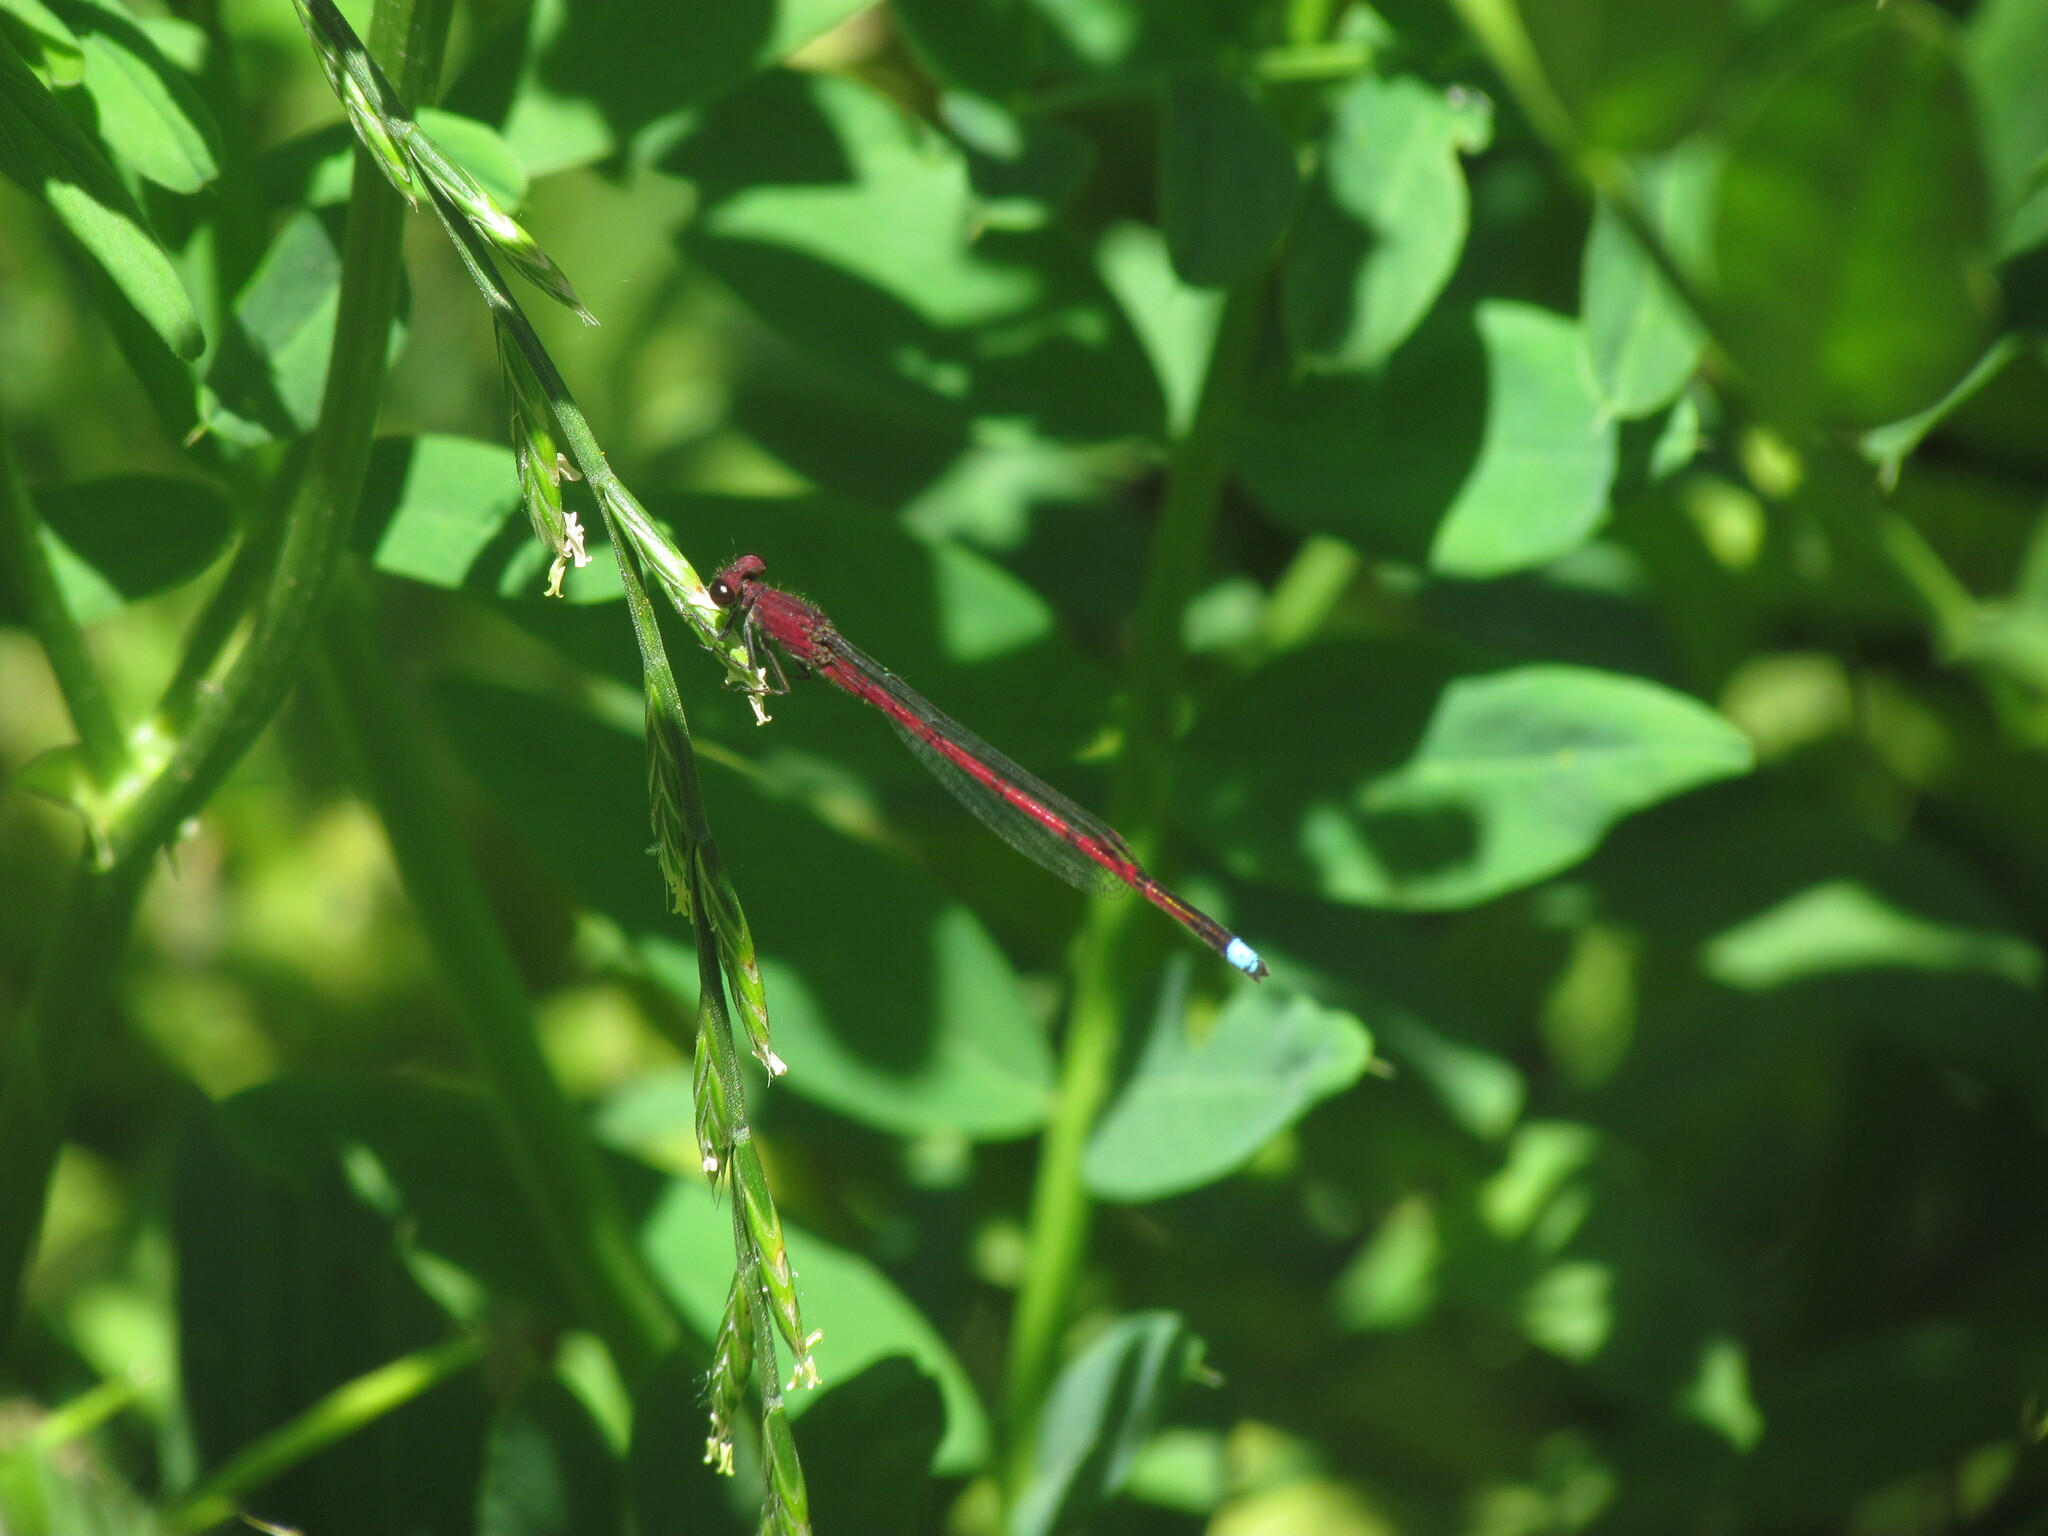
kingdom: Animalia
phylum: Arthropoda
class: Insecta
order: Odonata
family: Coenagrionidae
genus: Oxyagrion
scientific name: Oxyagrion terminale
